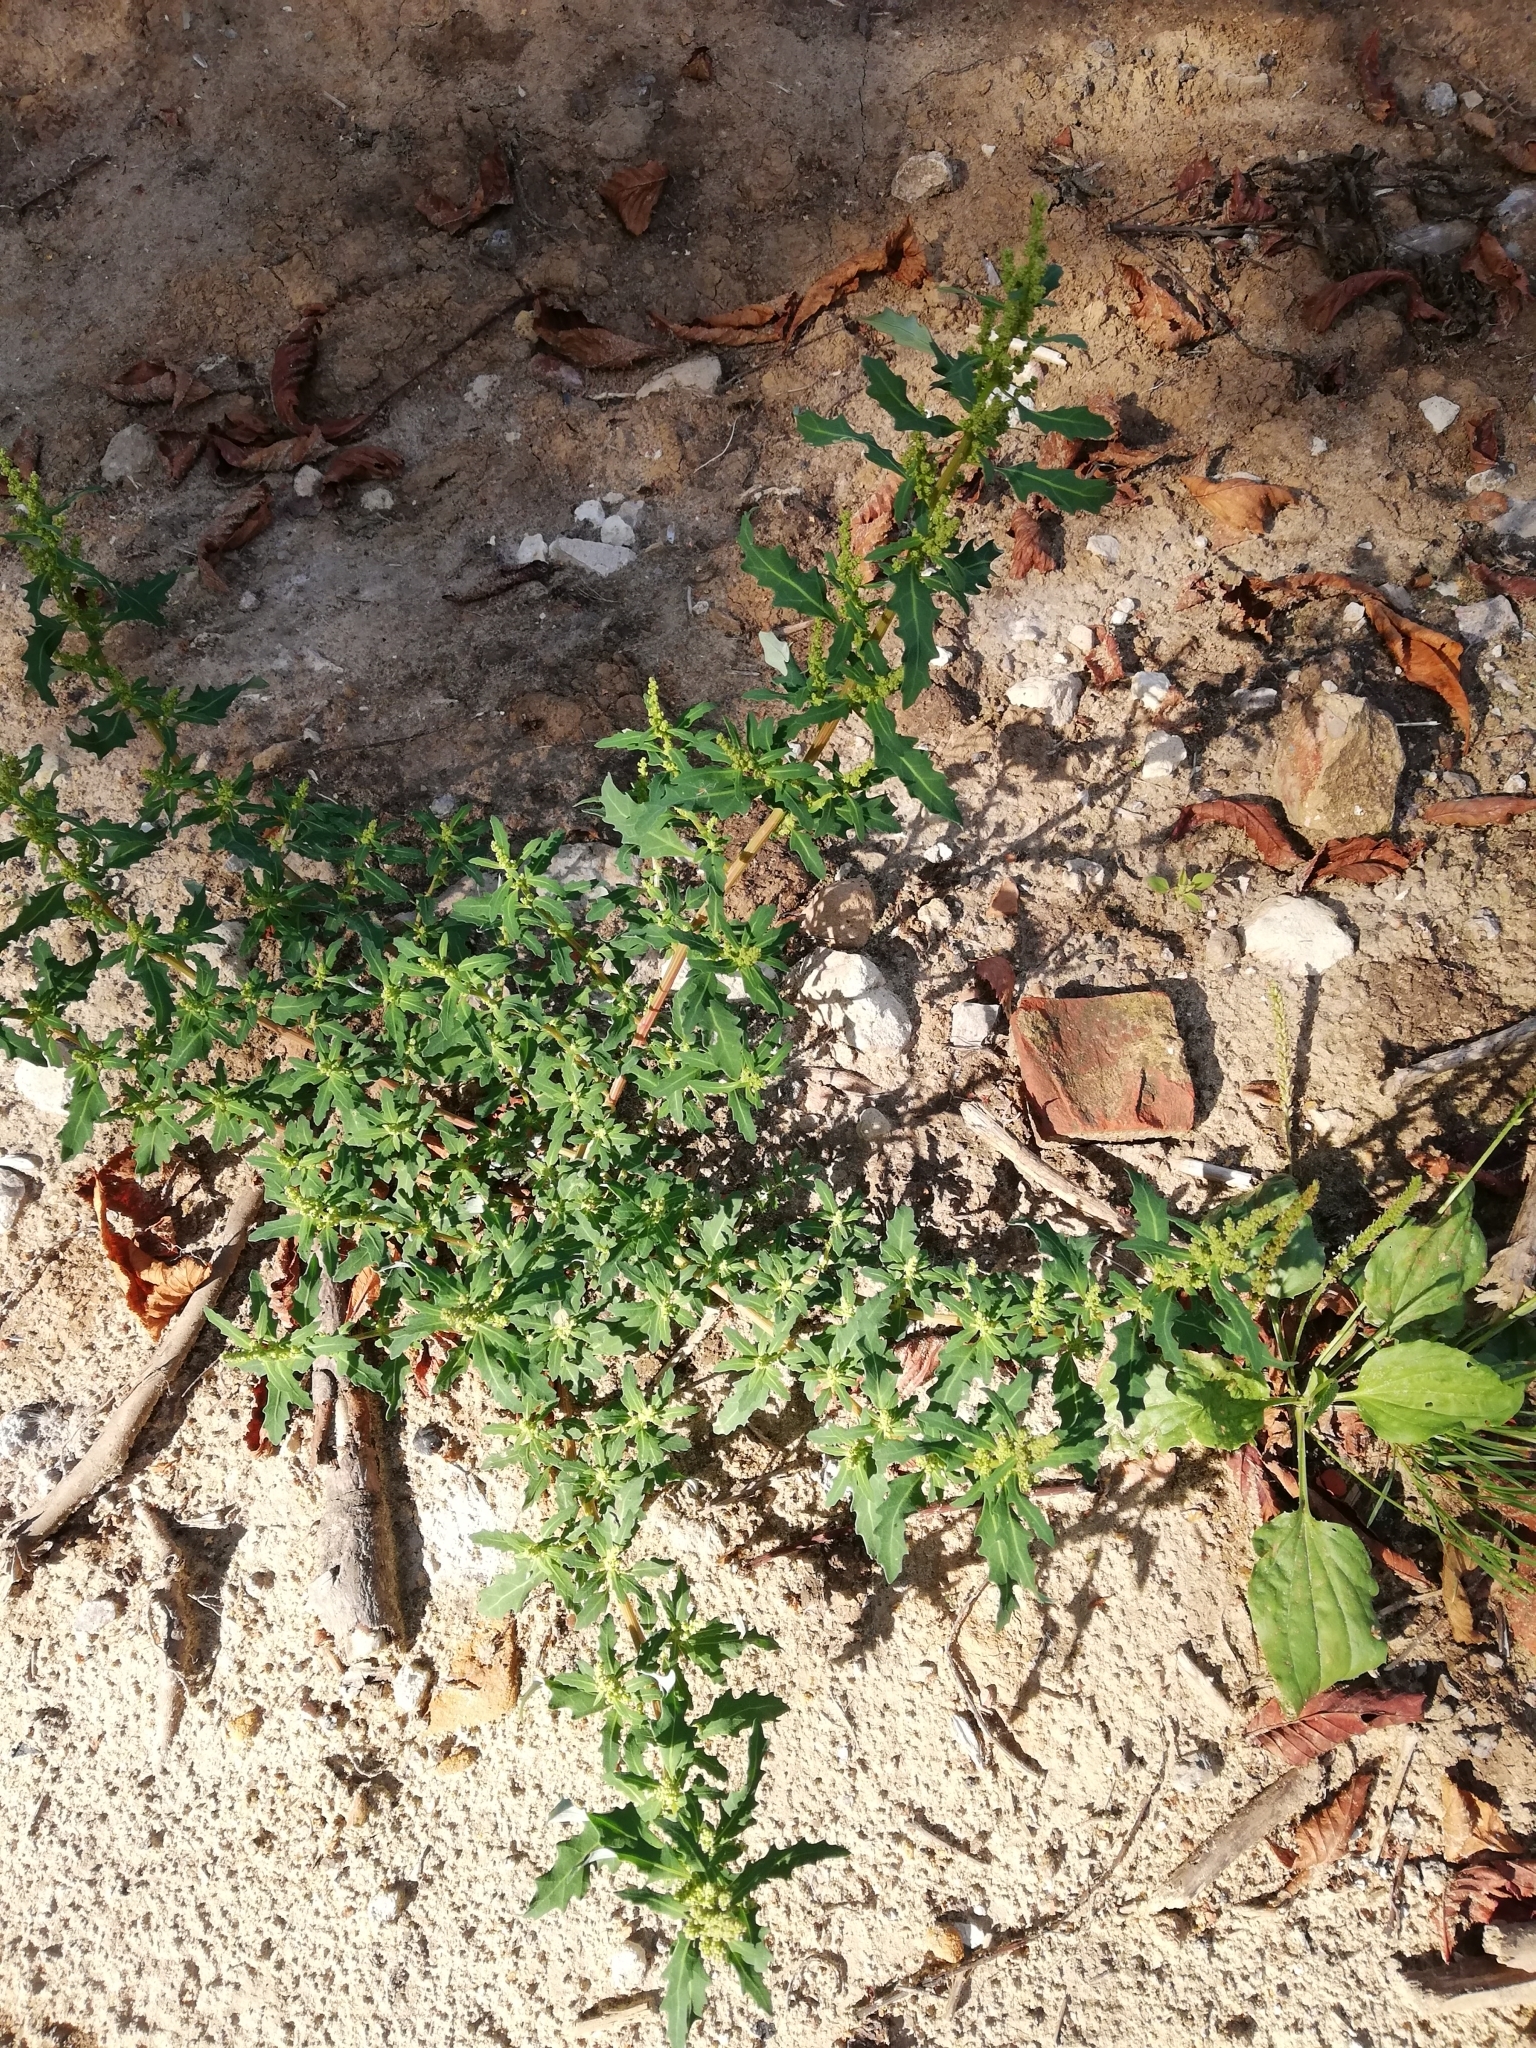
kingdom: Plantae
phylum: Tracheophyta
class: Magnoliopsida
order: Caryophyllales
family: Amaranthaceae
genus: Oxybasis
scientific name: Oxybasis glauca
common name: Glaucous goosefoot
